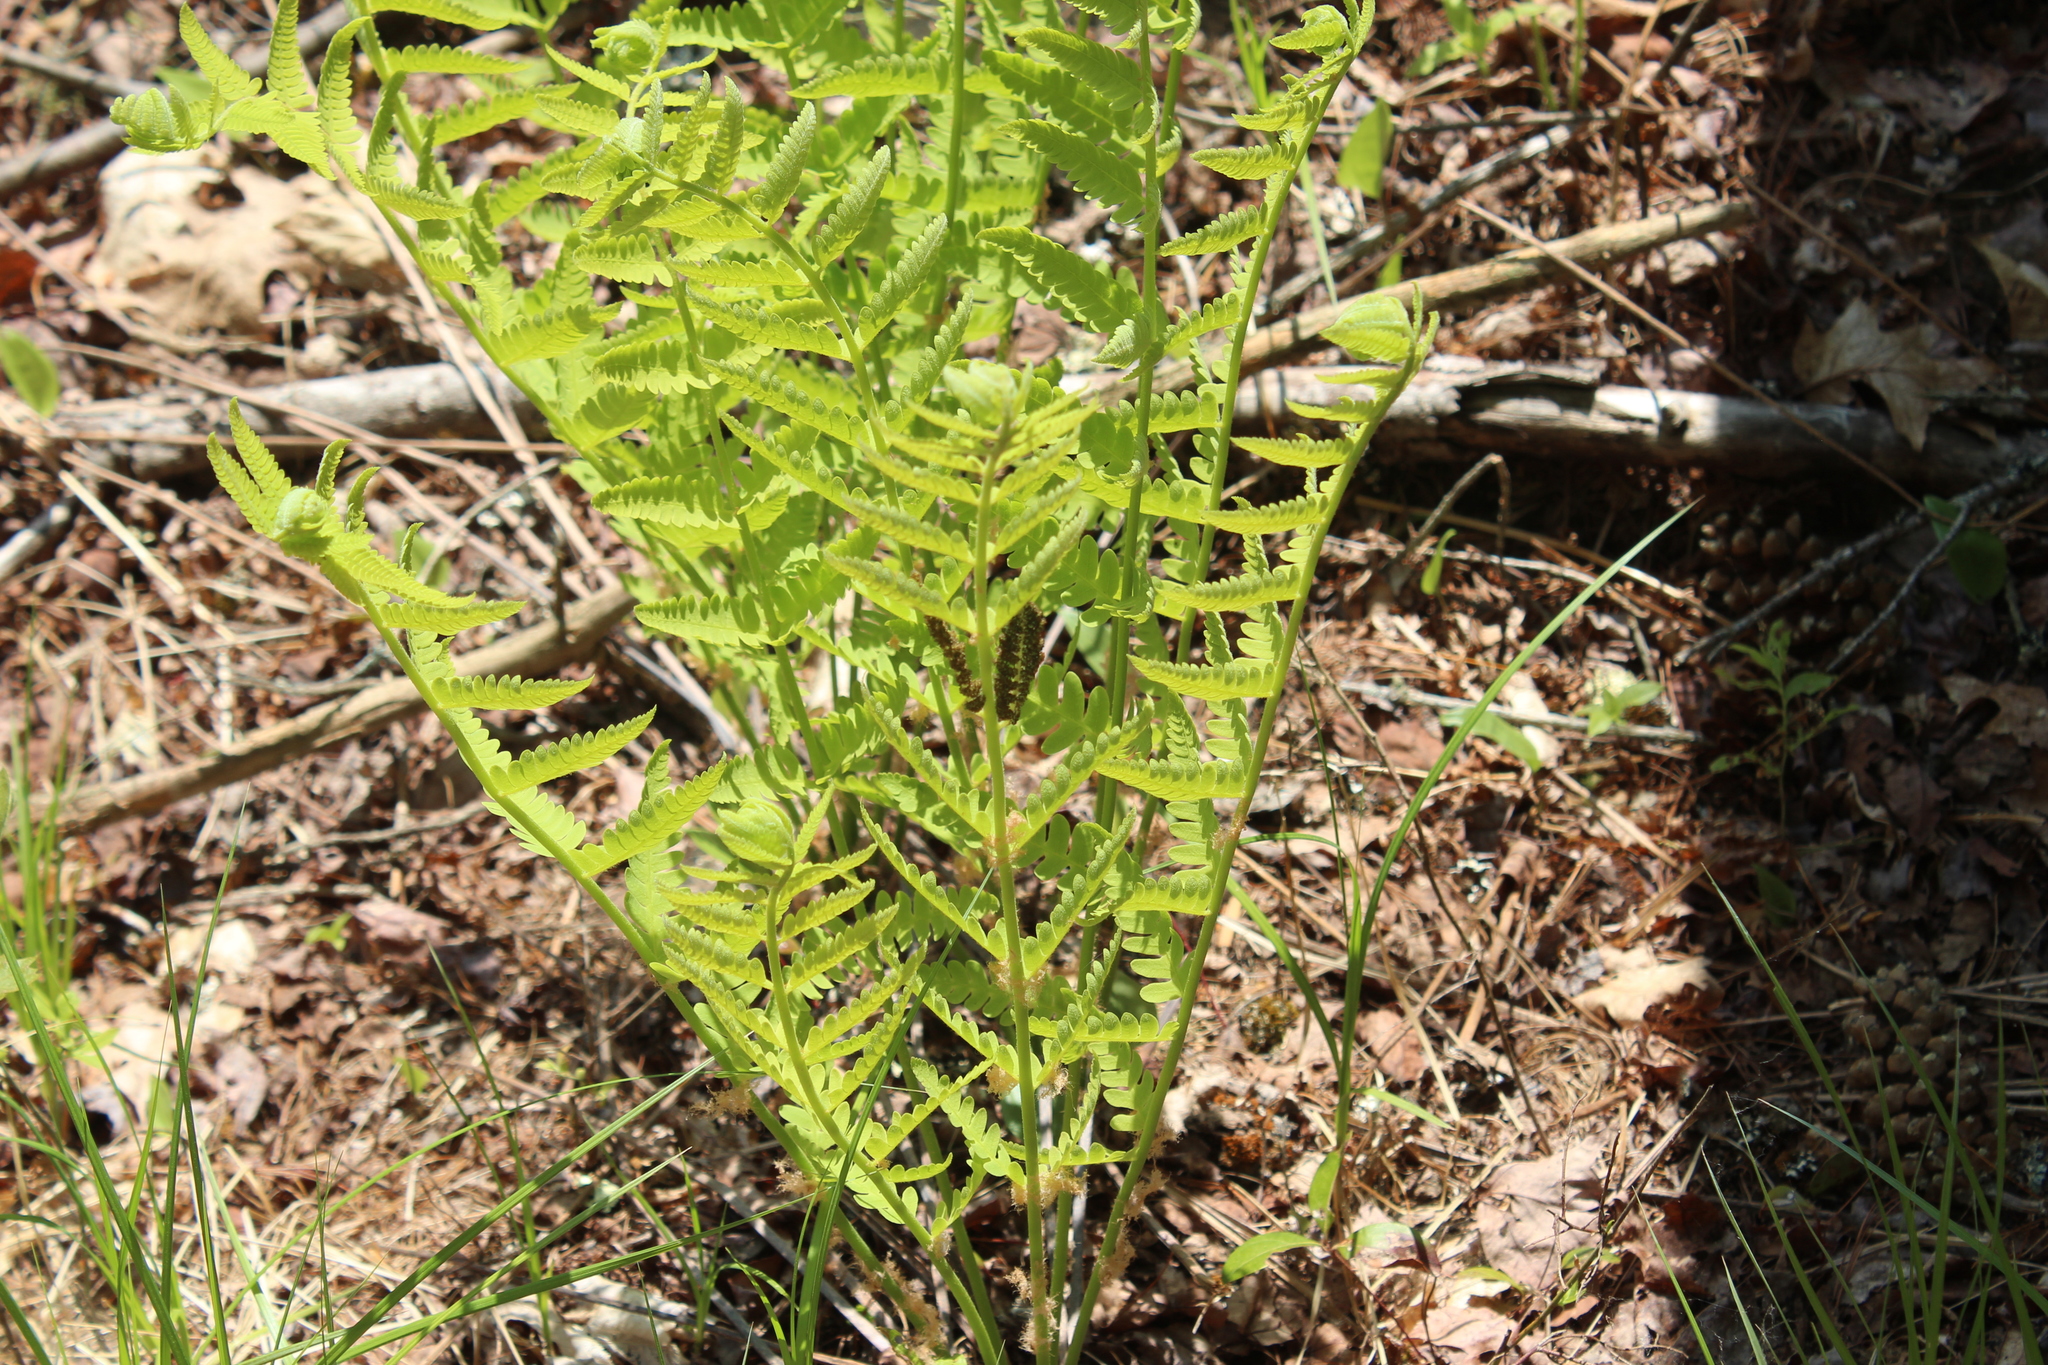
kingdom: Plantae
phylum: Tracheophyta
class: Polypodiopsida
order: Osmundales
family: Osmundaceae
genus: Claytosmunda
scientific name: Claytosmunda claytoniana
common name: Clayton's fern
